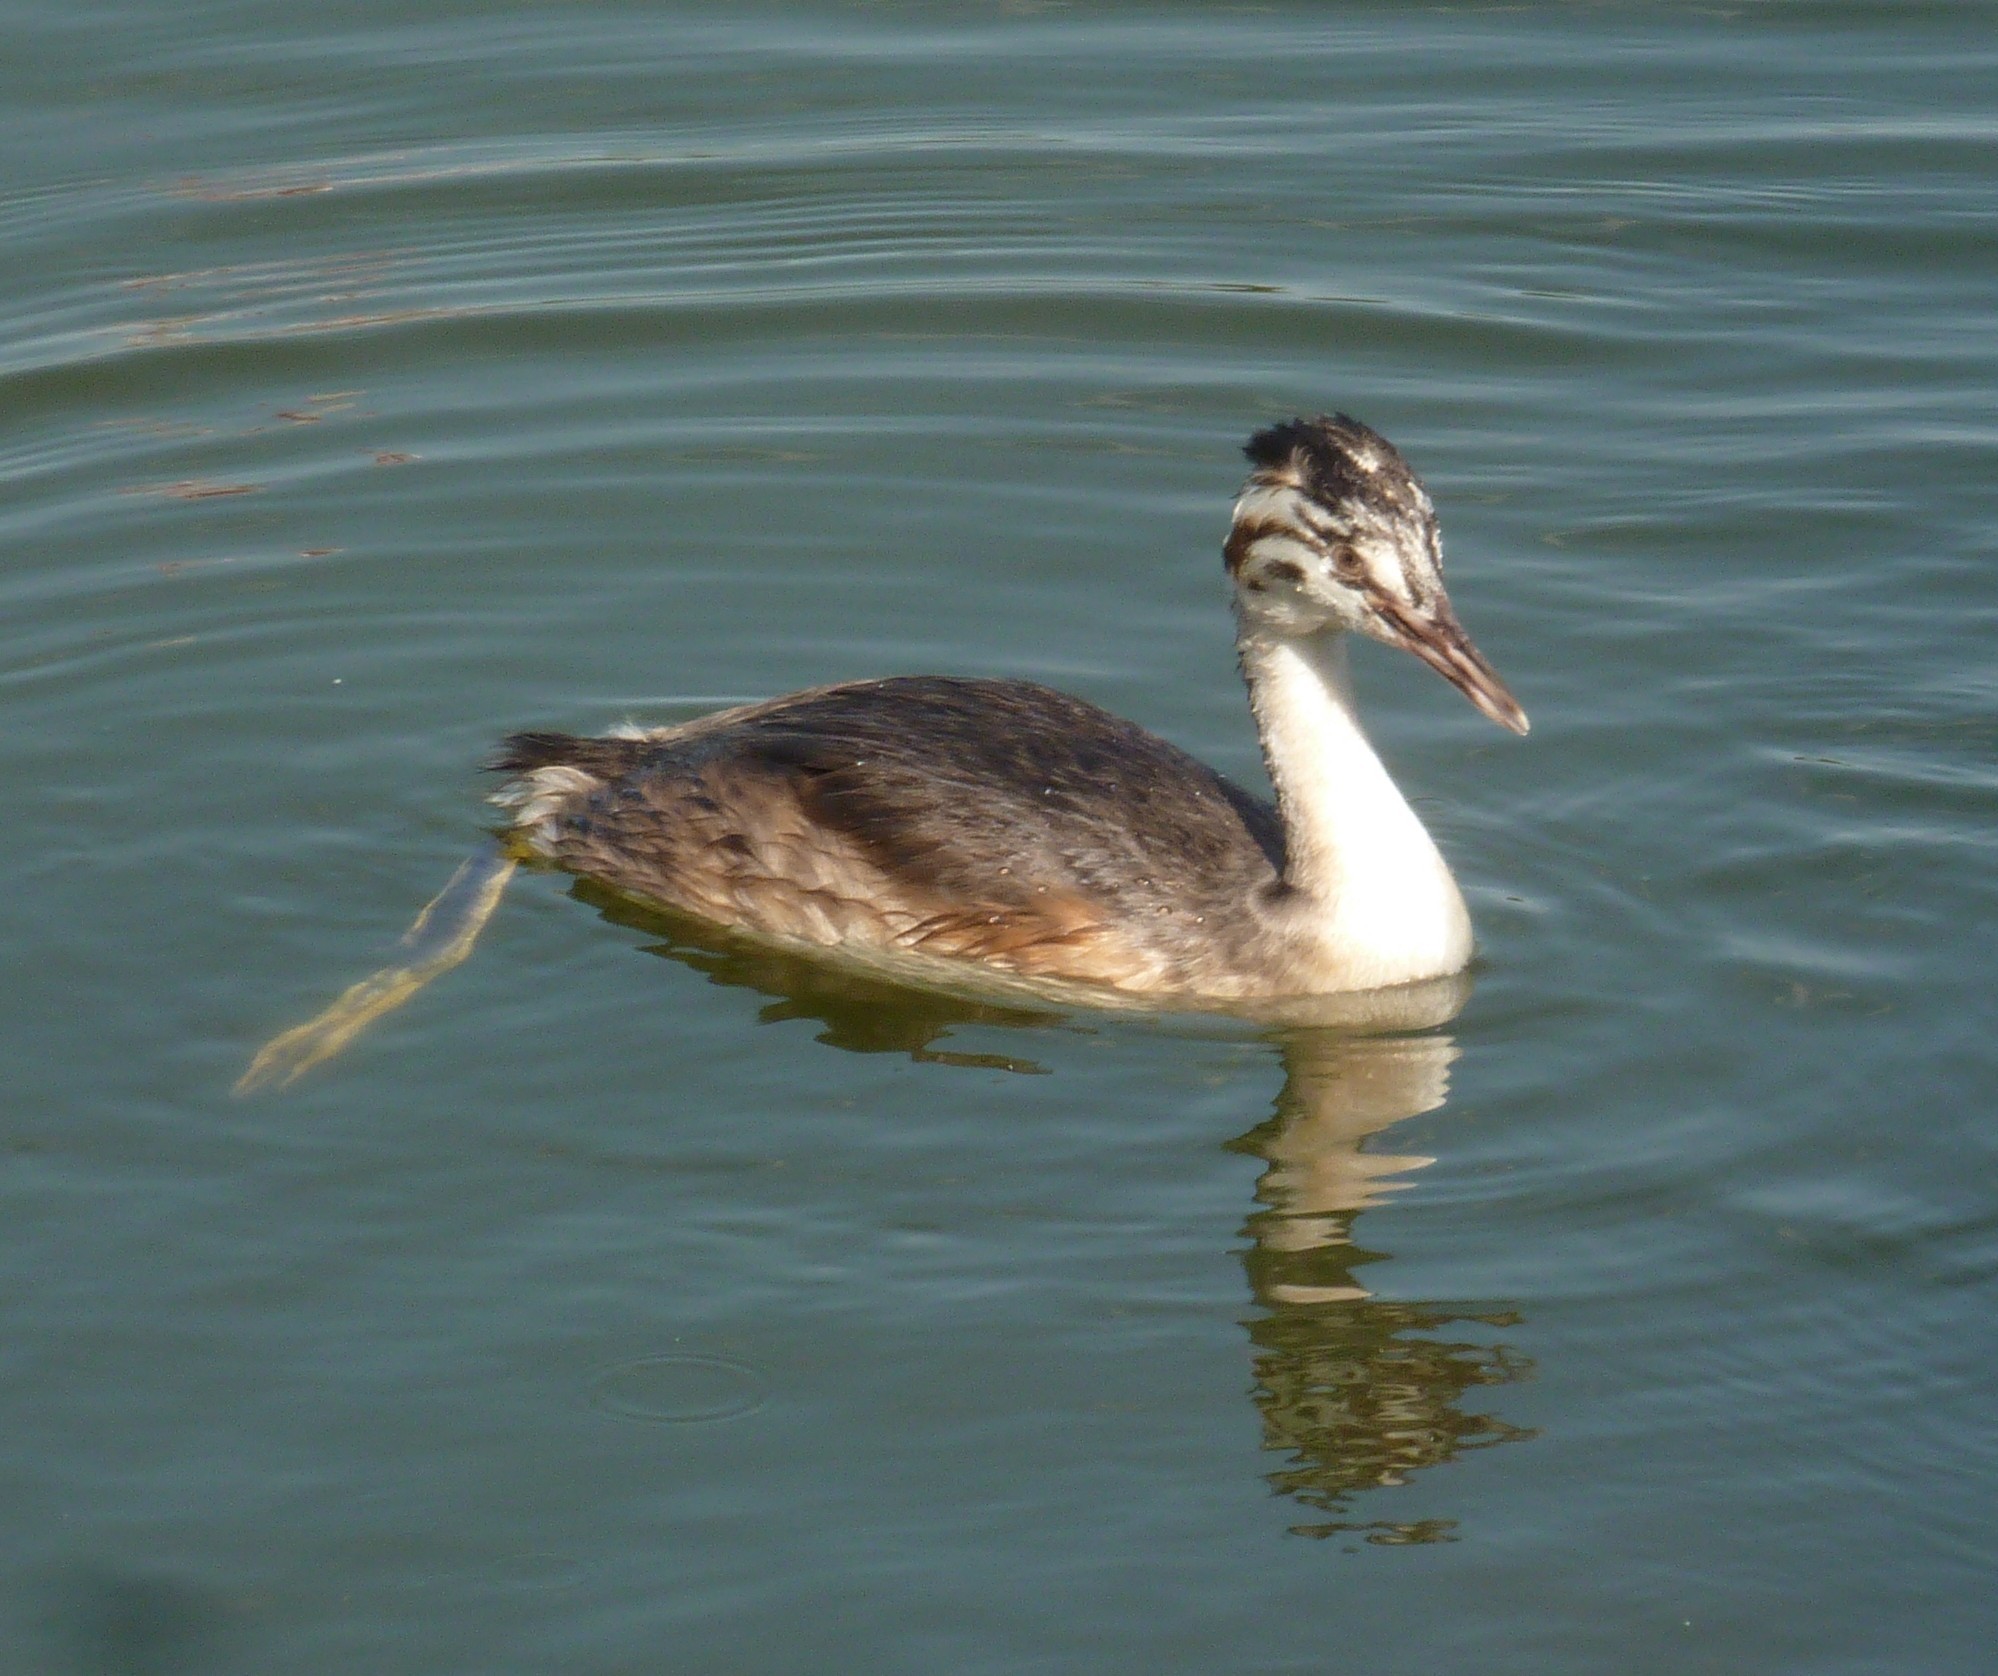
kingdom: Animalia
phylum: Chordata
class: Aves
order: Podicipediformes
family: Podicipedidae
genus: Podiceps
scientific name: Podiceps cristatus
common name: Great crested grebe
